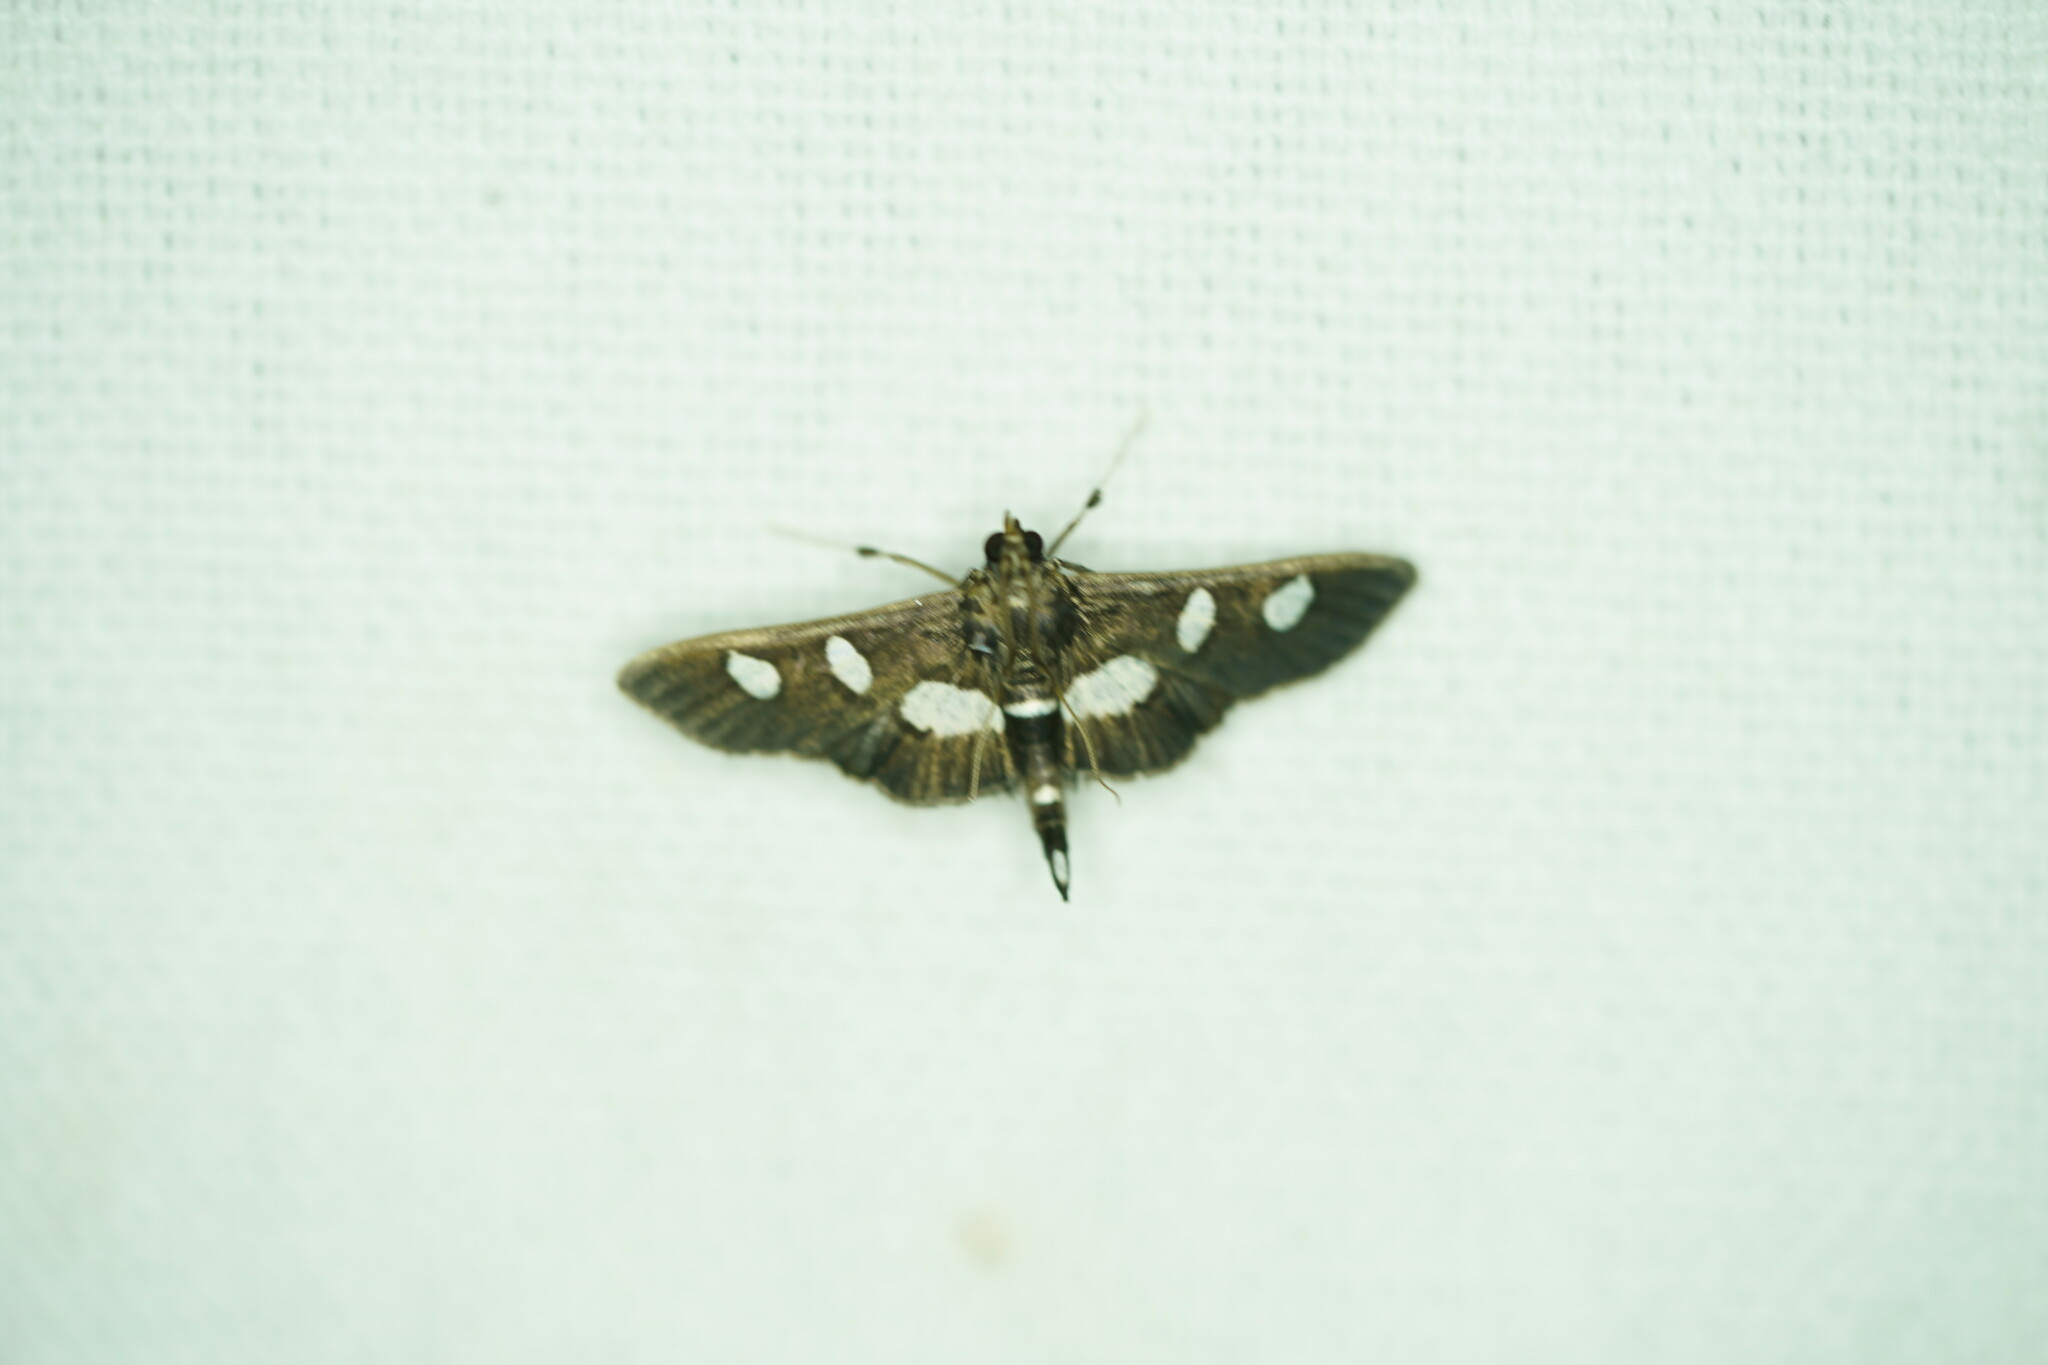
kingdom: Animalia
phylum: Arthropoda
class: Insecta
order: Lepidoptera
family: Crambidae
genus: Desmia
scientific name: Desmia
